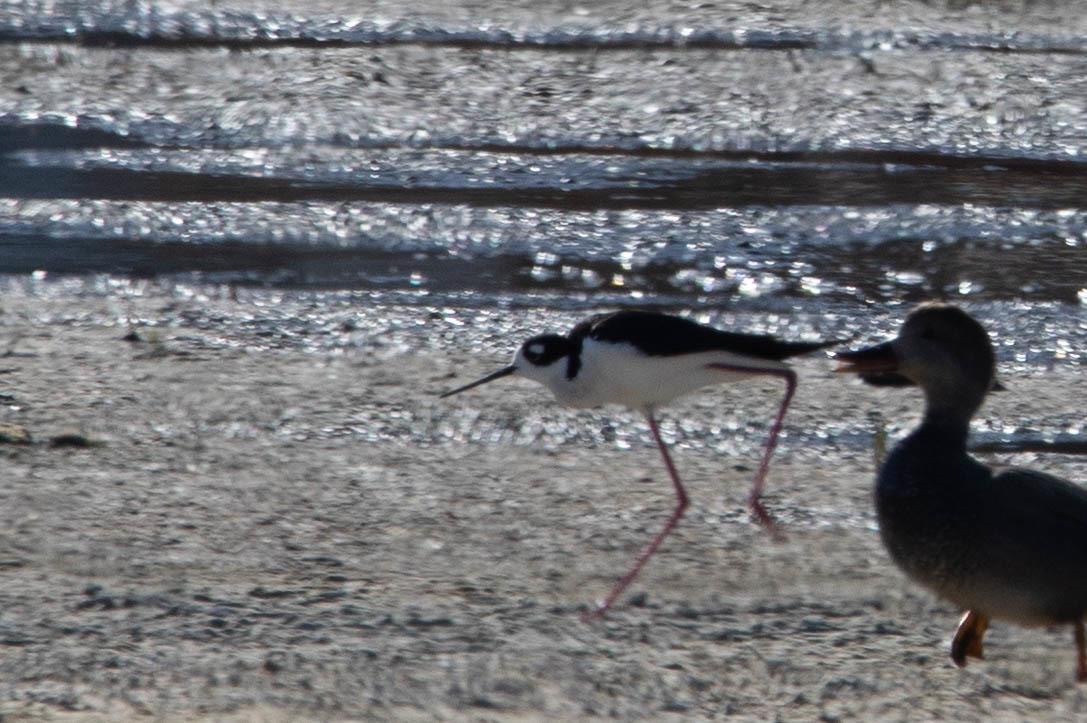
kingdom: Animalia
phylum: Chordata
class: Aves
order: Charadriiformes
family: Recurvirostridae
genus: Himantopus
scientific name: Himantopus mexicanus
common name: Black-necked stilt
